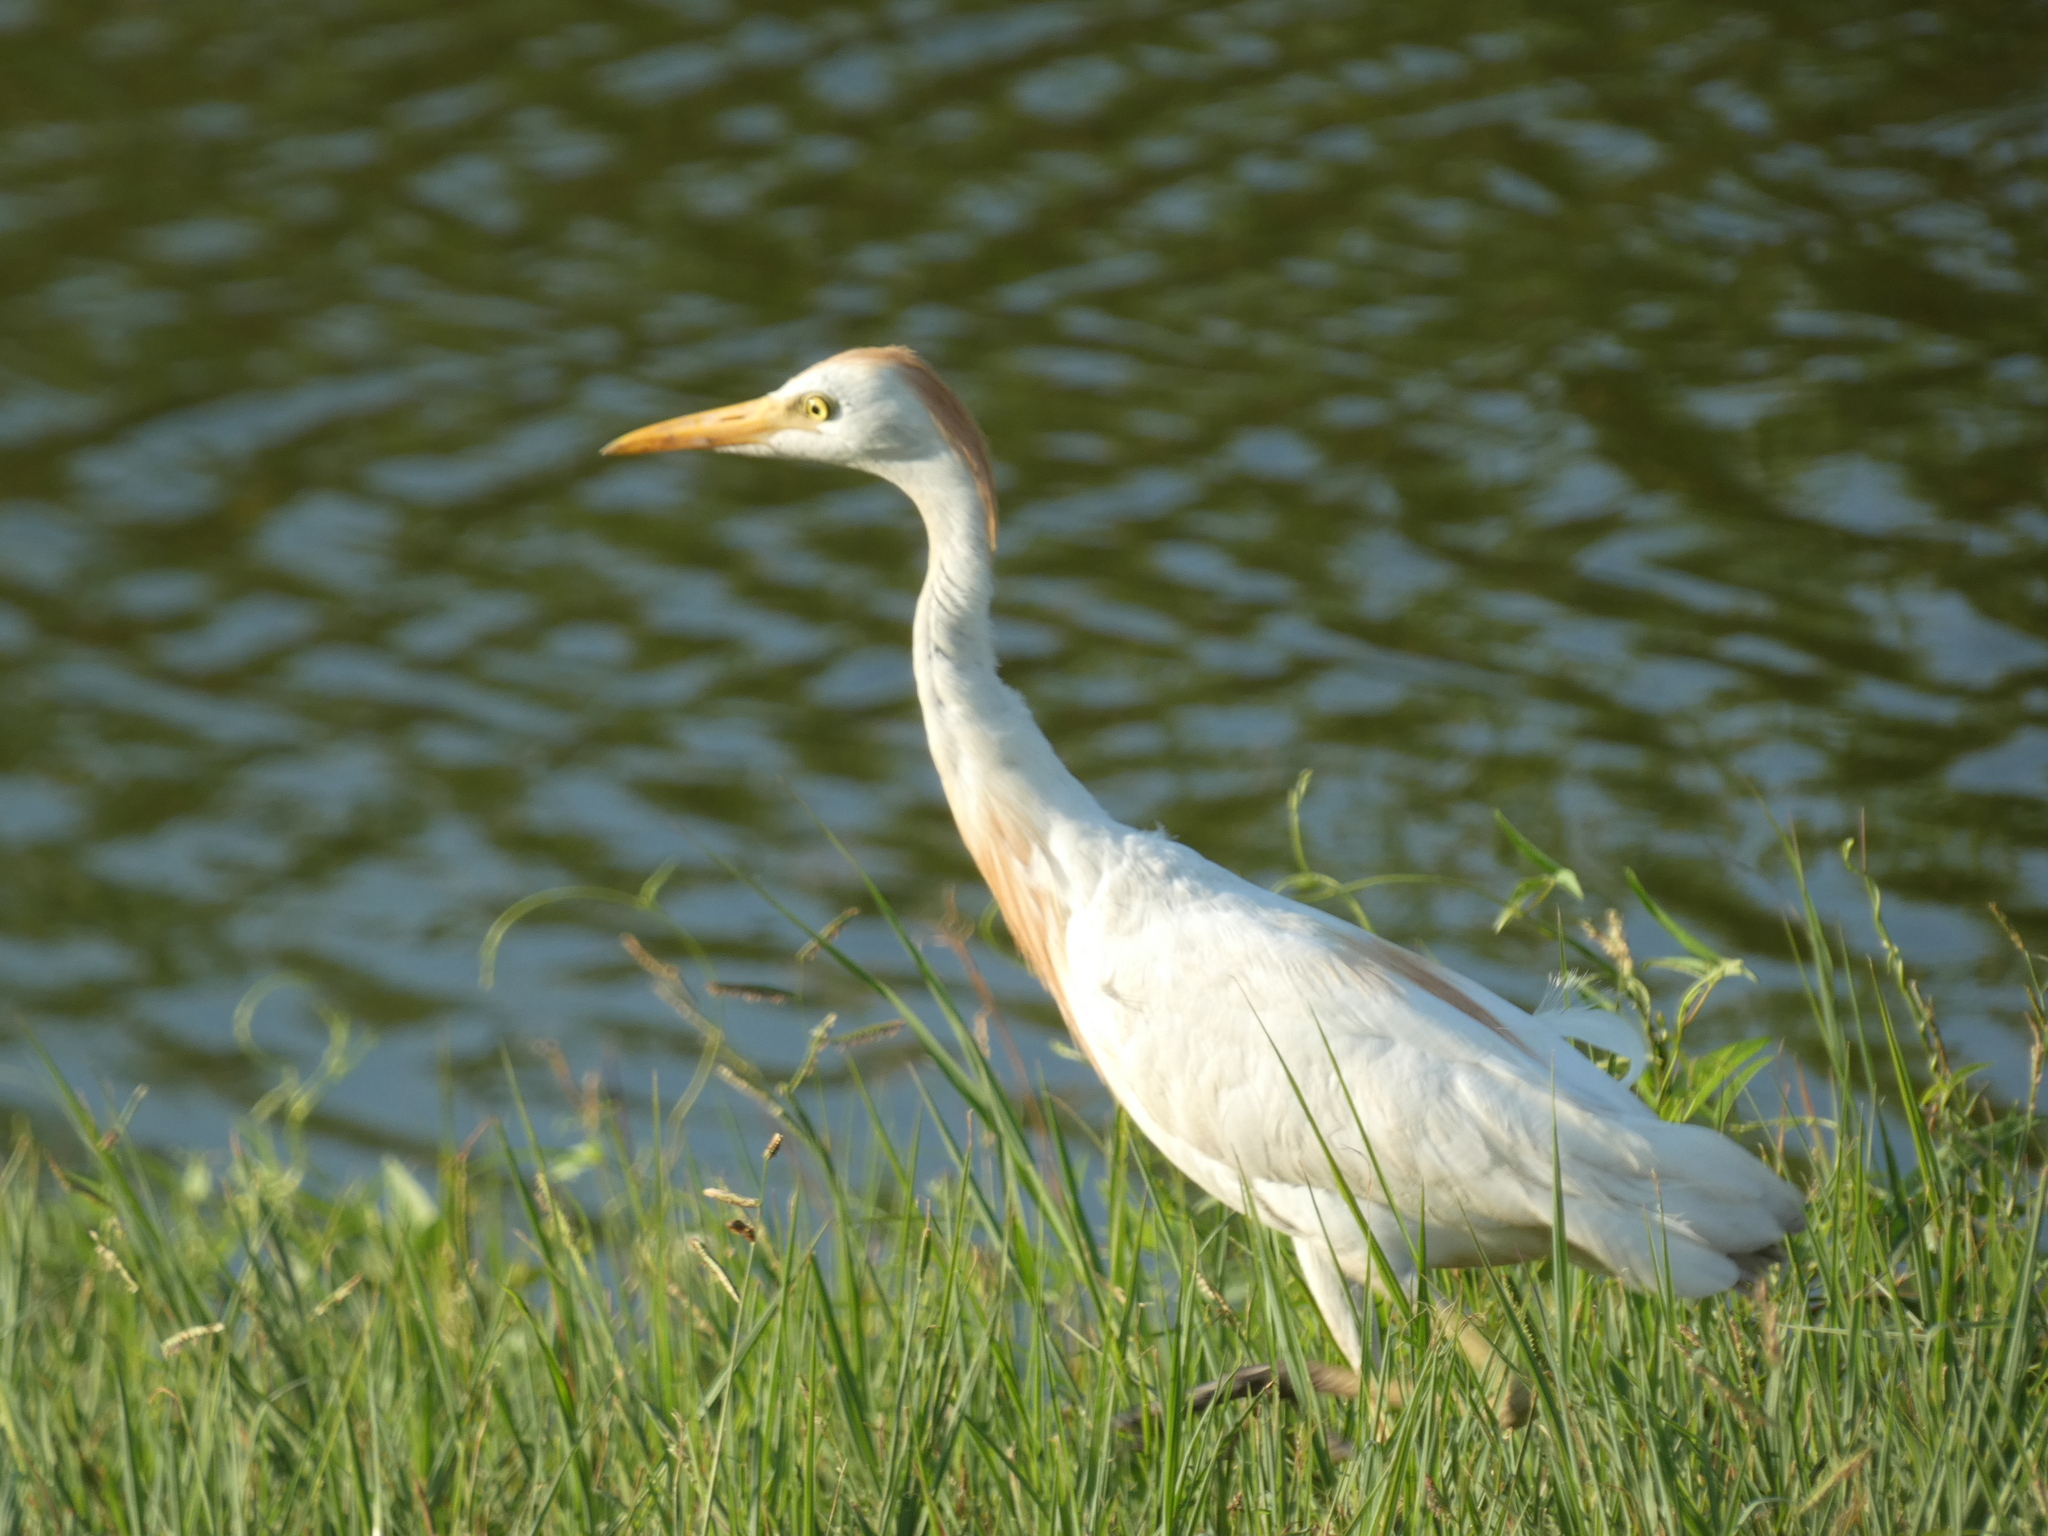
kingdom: Animalia
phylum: Chordata
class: Aves
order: Pelecaniformes
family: Ardeidae
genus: Bubulcus
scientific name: Bubulcus ibis
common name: Cattle egret
